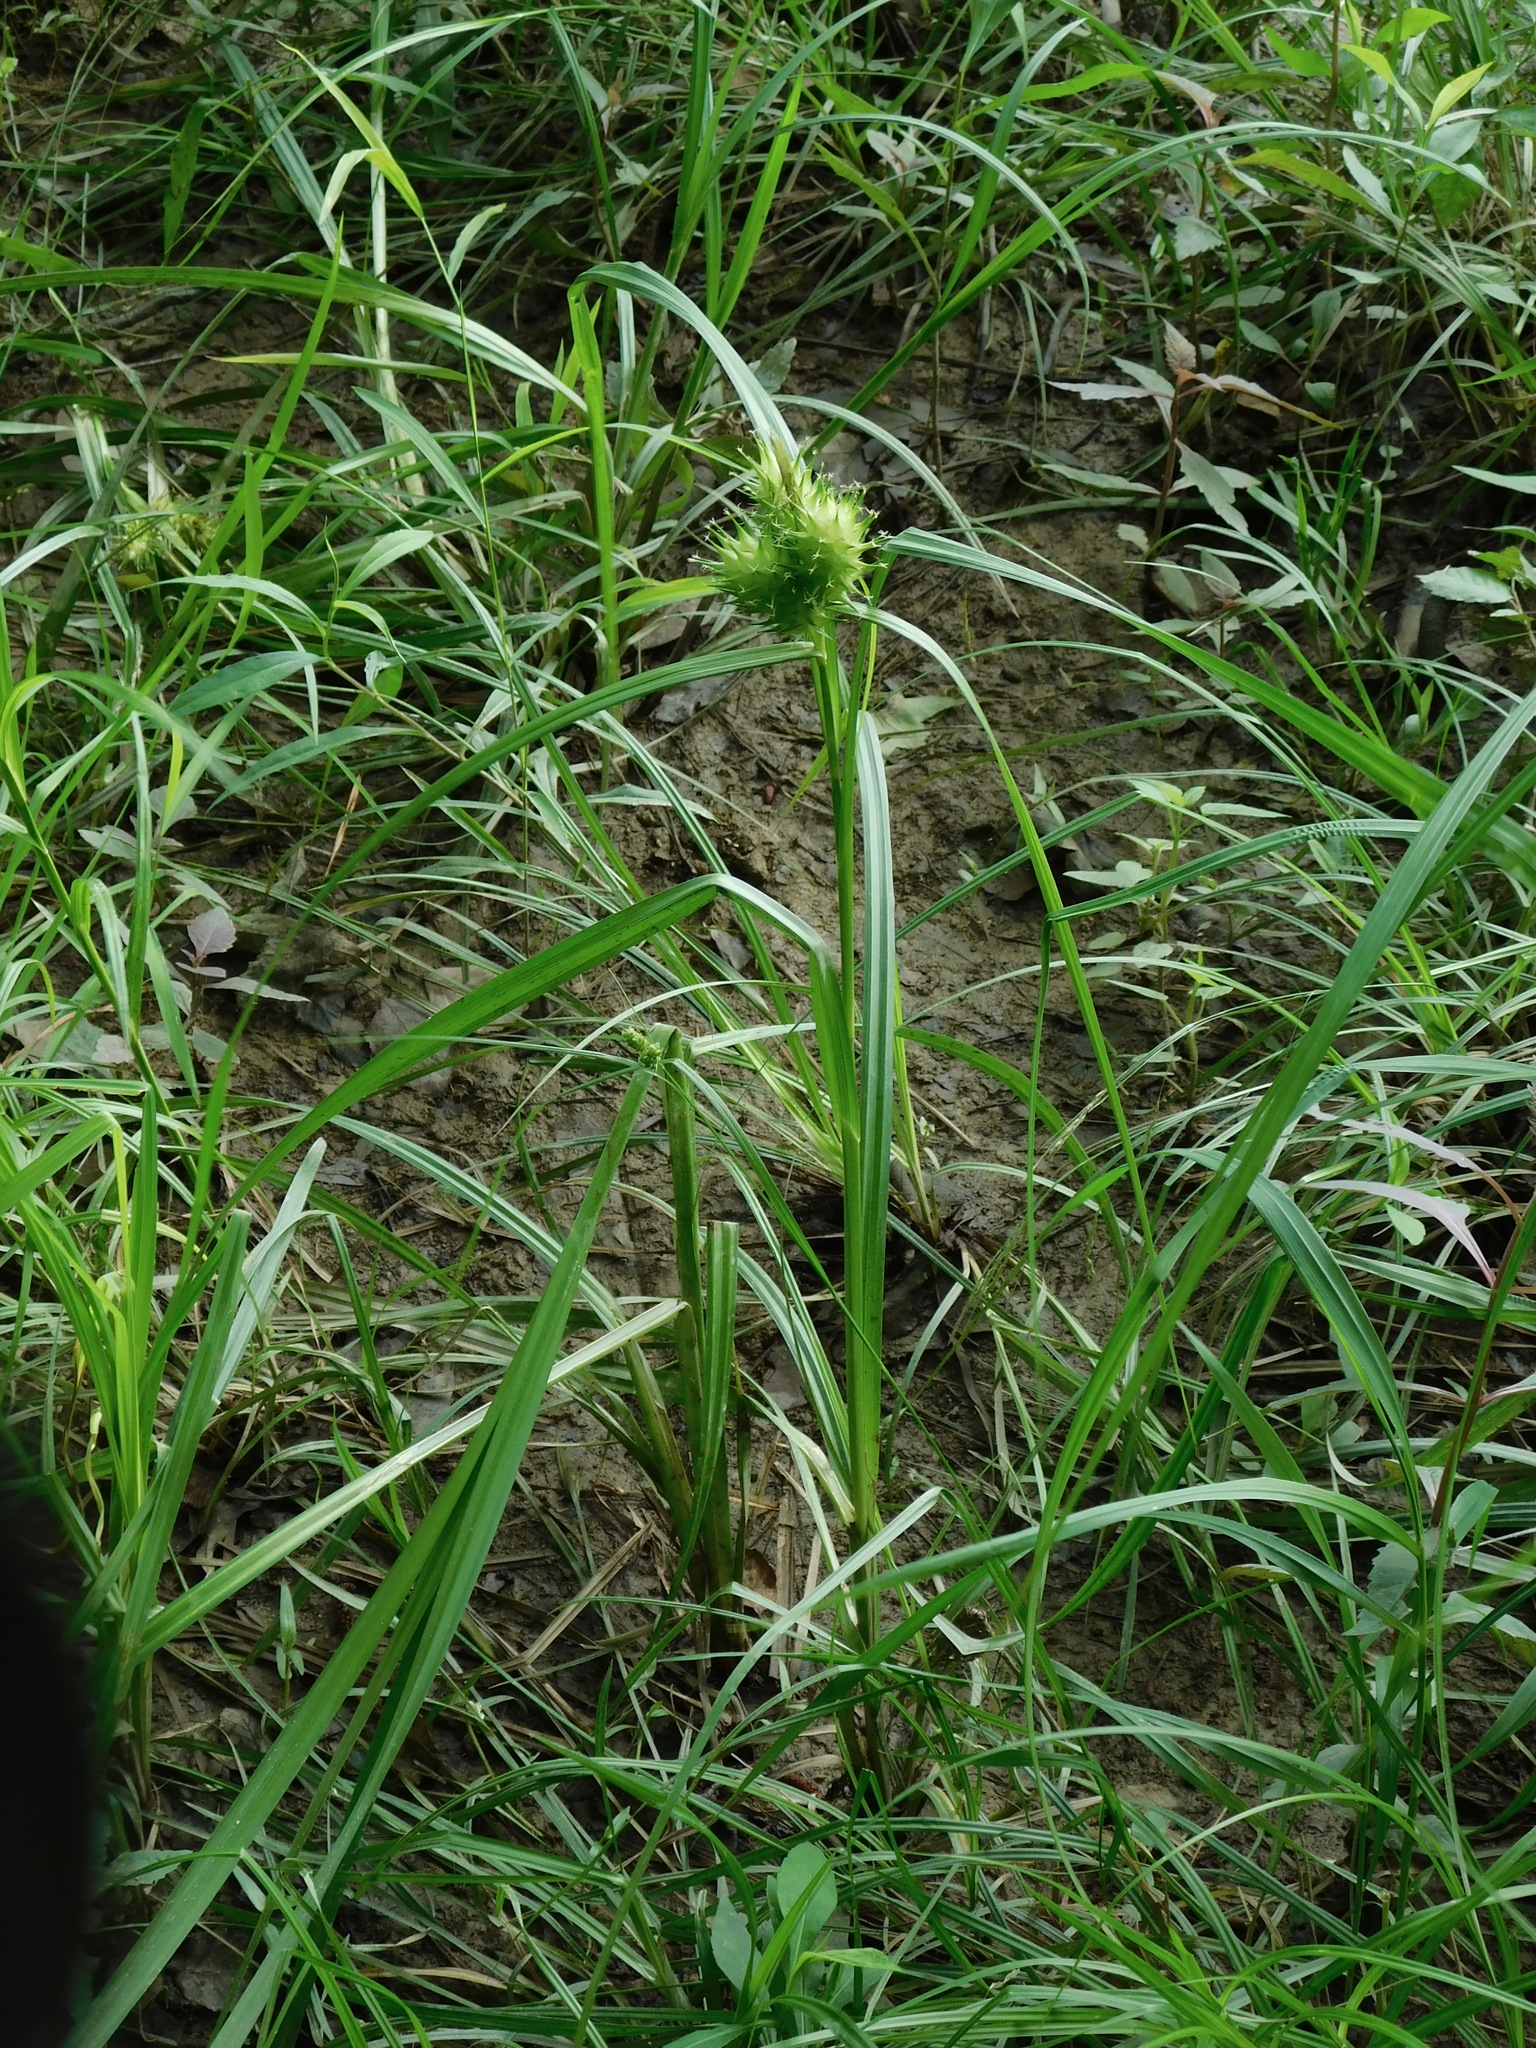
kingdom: Plantae
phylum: Tracheophyta
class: Liliopsida
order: Poales
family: Cyperaceae
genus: Carex
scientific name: Carex lupulina
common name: Hop sedge
